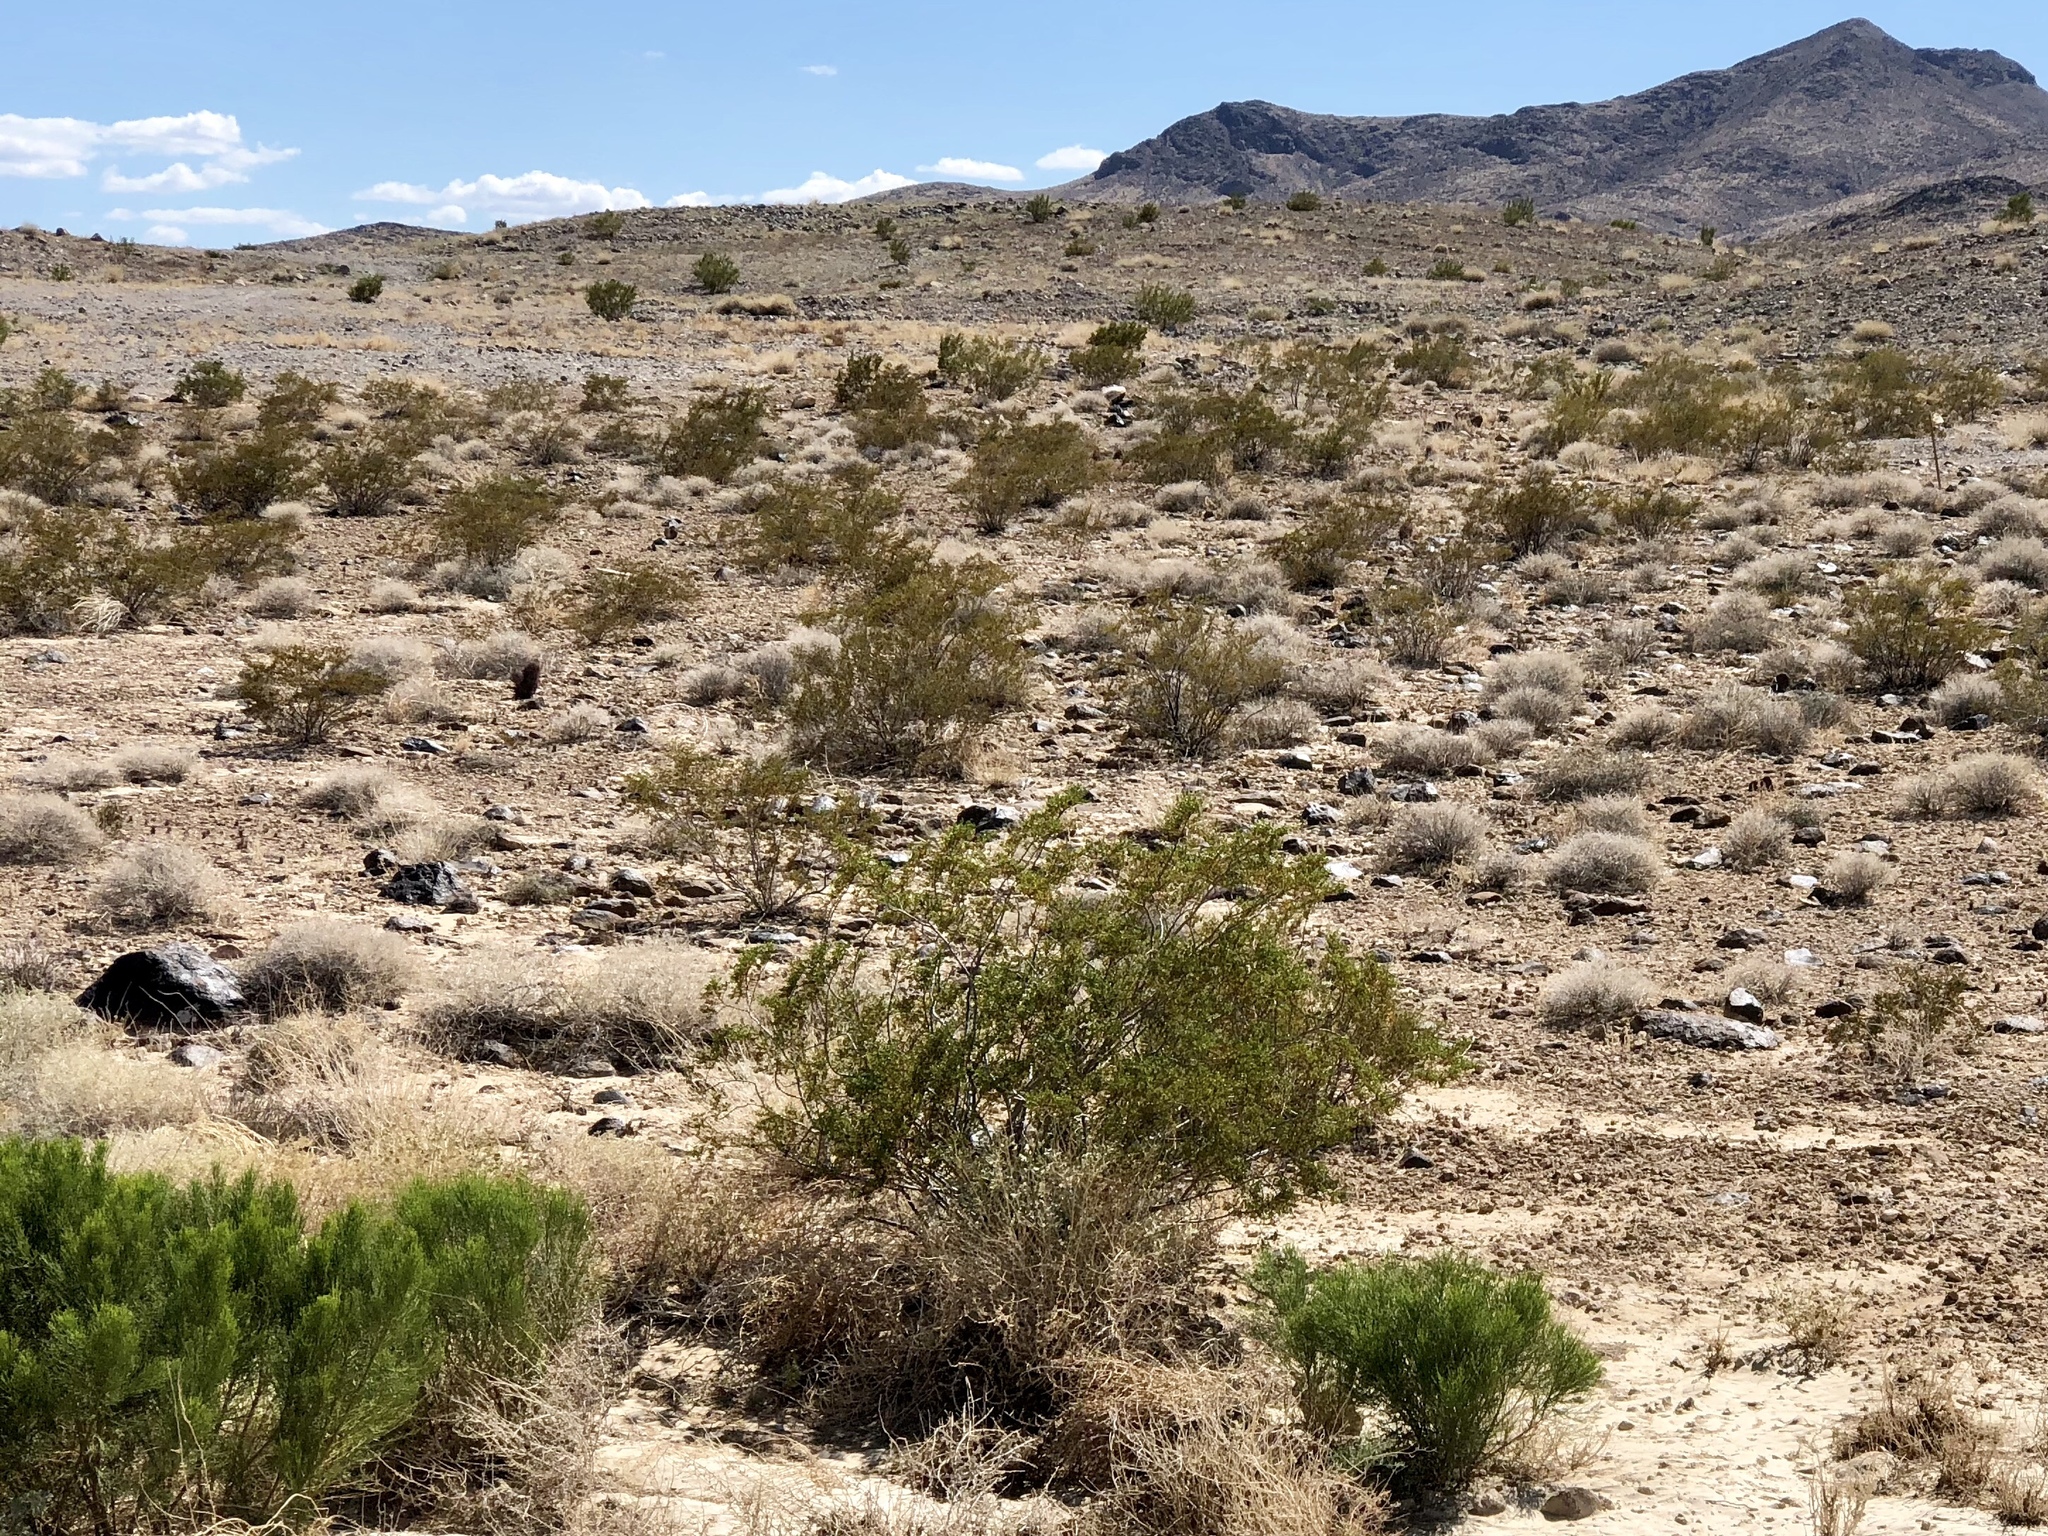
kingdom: Plantae
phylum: Tracheophyta
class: Magnoliopsida
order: Zygophyllales
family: Zygophyllaceae
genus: Larrea
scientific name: Larrea tridentata
